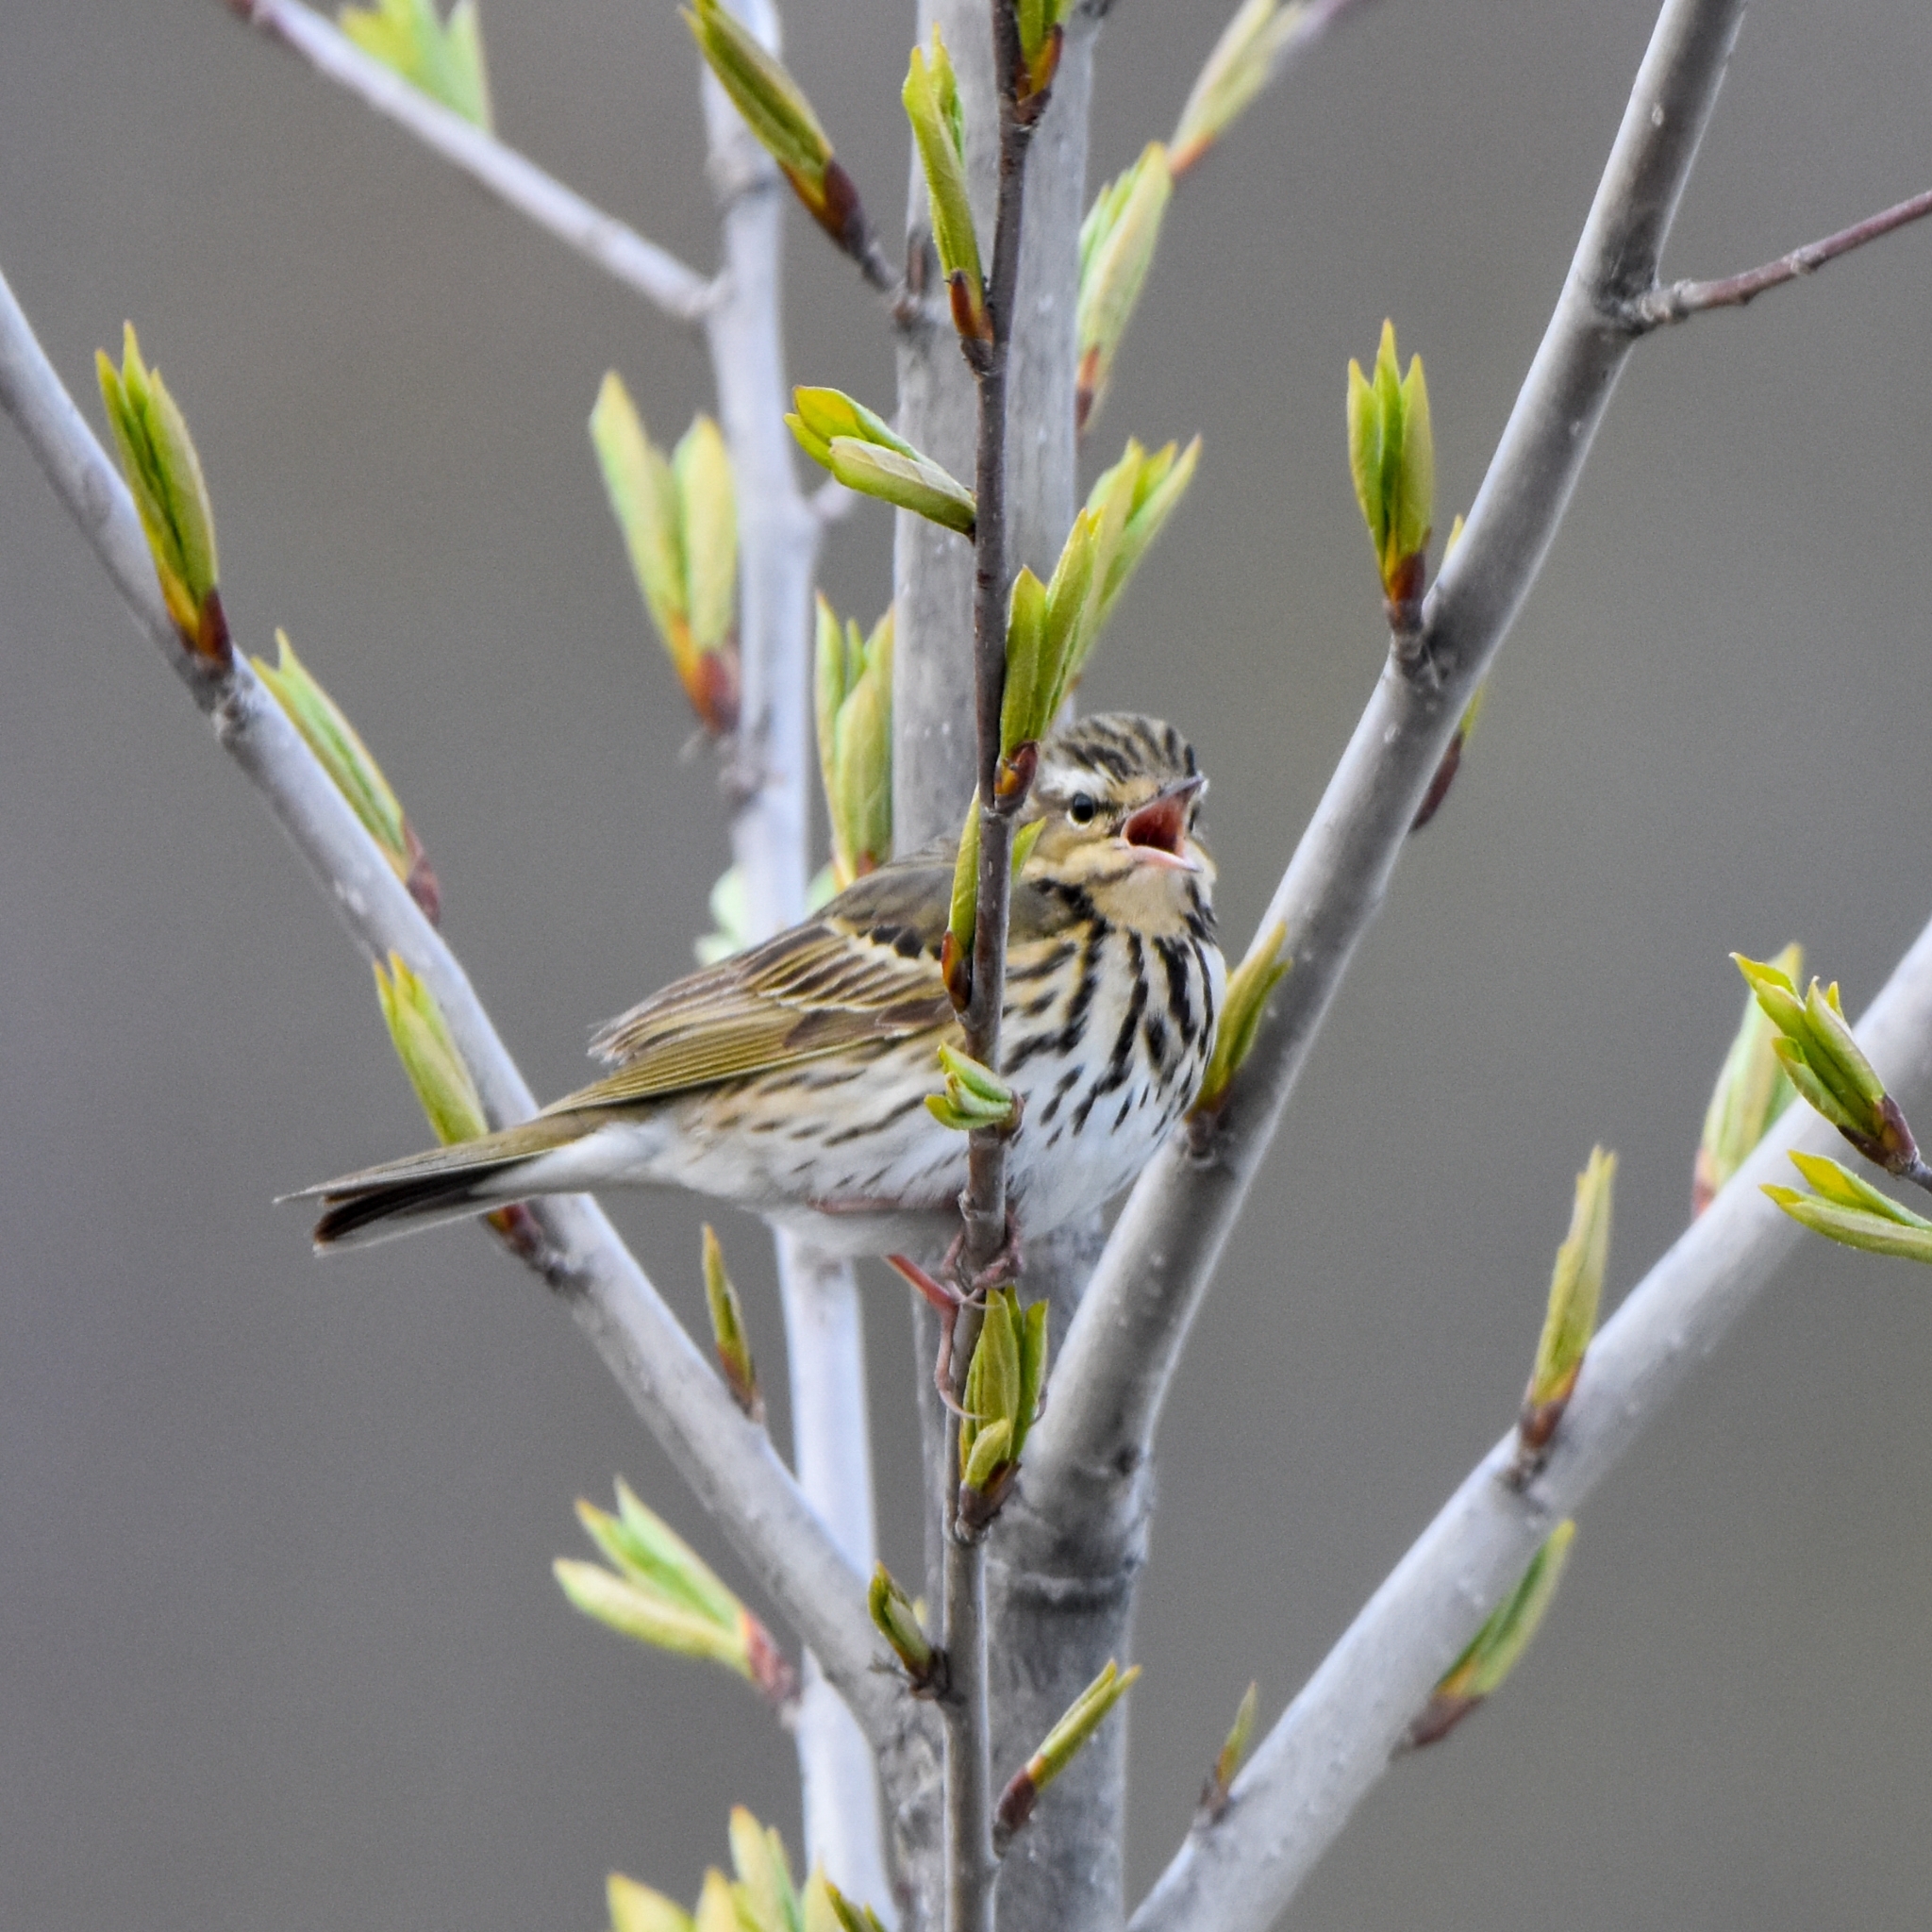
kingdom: Animalia
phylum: Chordata
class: Aves
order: Passeriformes
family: Motacillidae
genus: Anthus
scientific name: Anthus hodgsoni
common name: Olive-backed pipit
